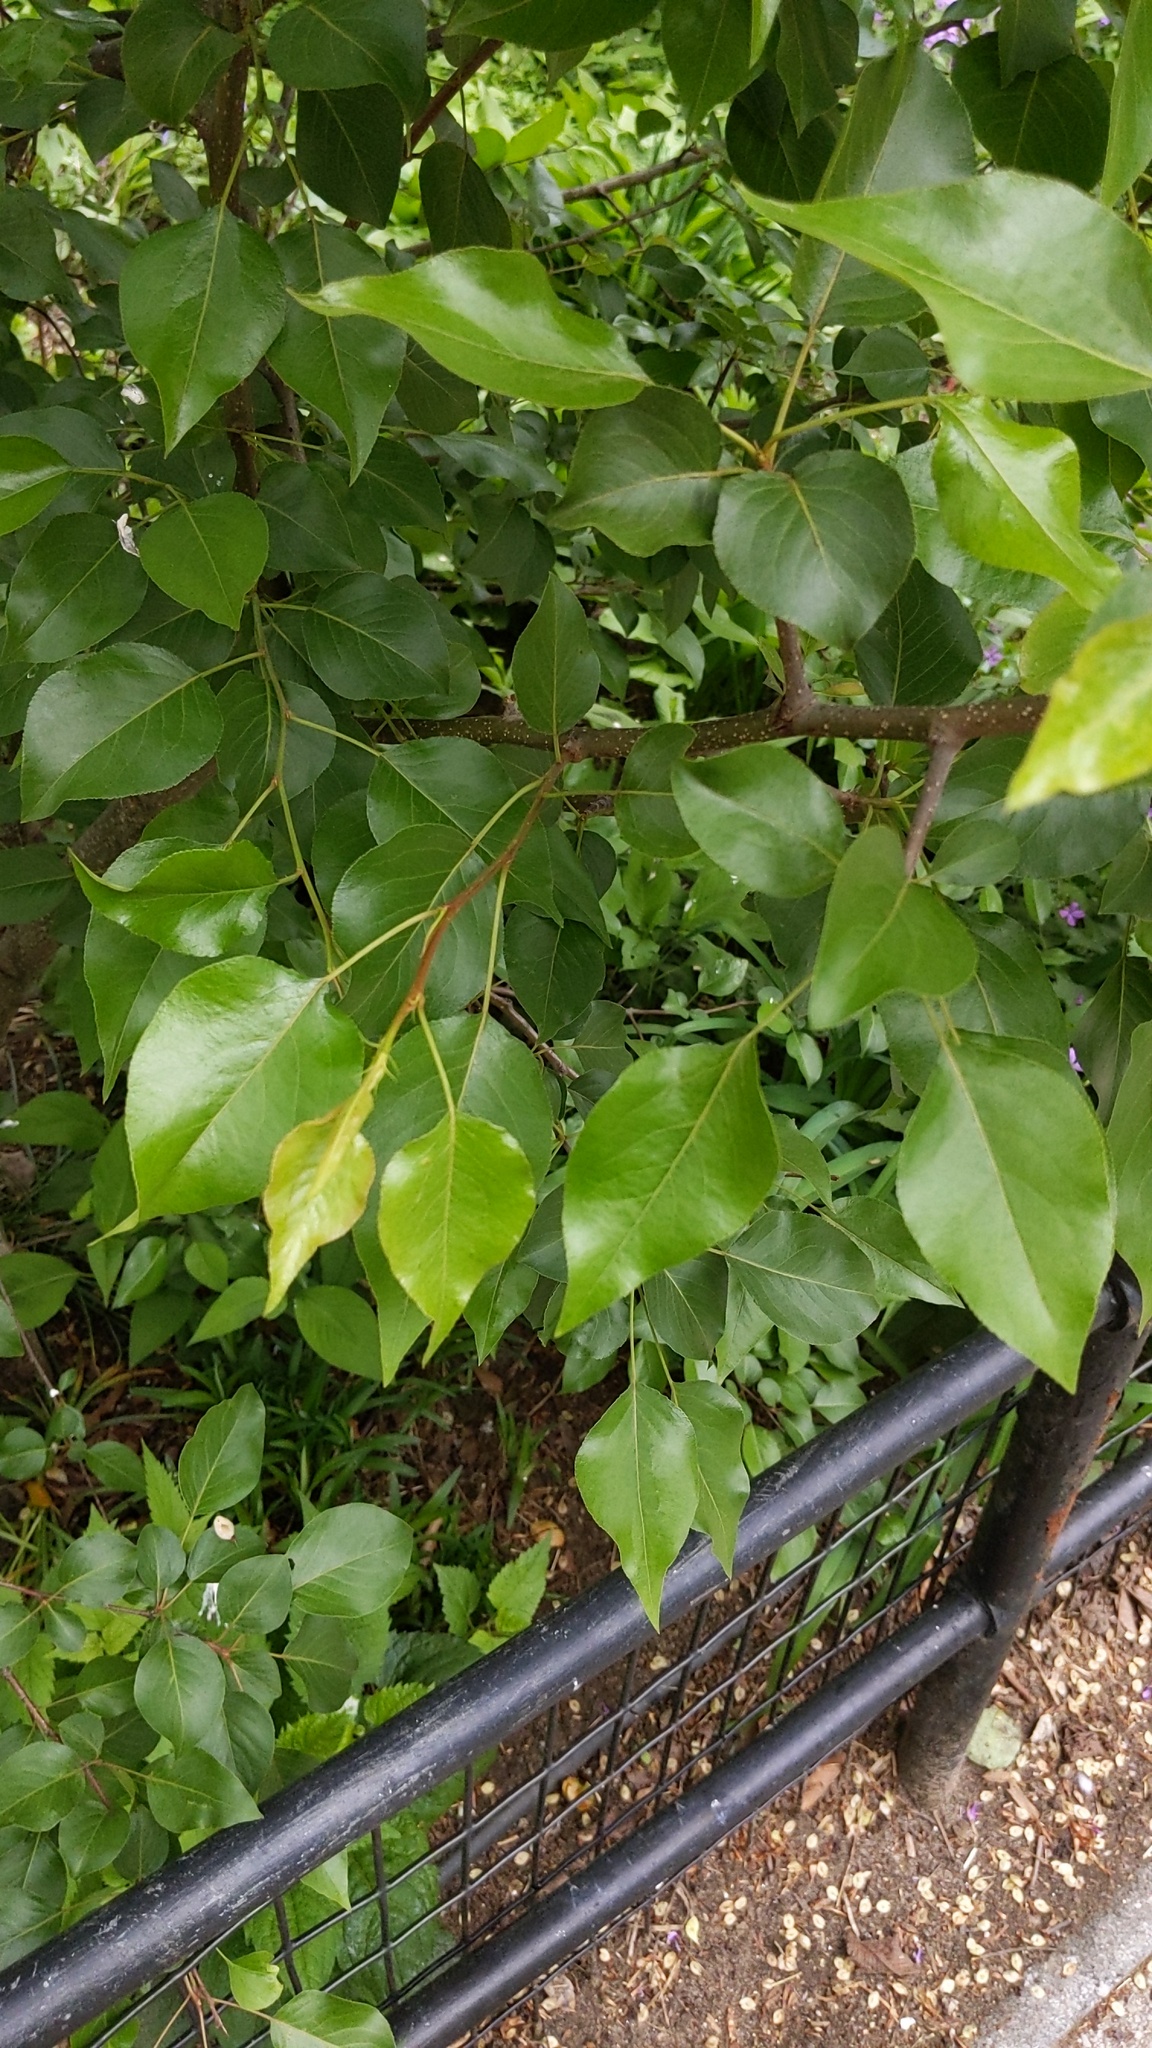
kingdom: Plantae
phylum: Tracheophyta
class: Magnoliopsida
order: Rosales
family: Rosaceae
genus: Pyrus
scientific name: Pyrus calleryana
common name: Callery pear
